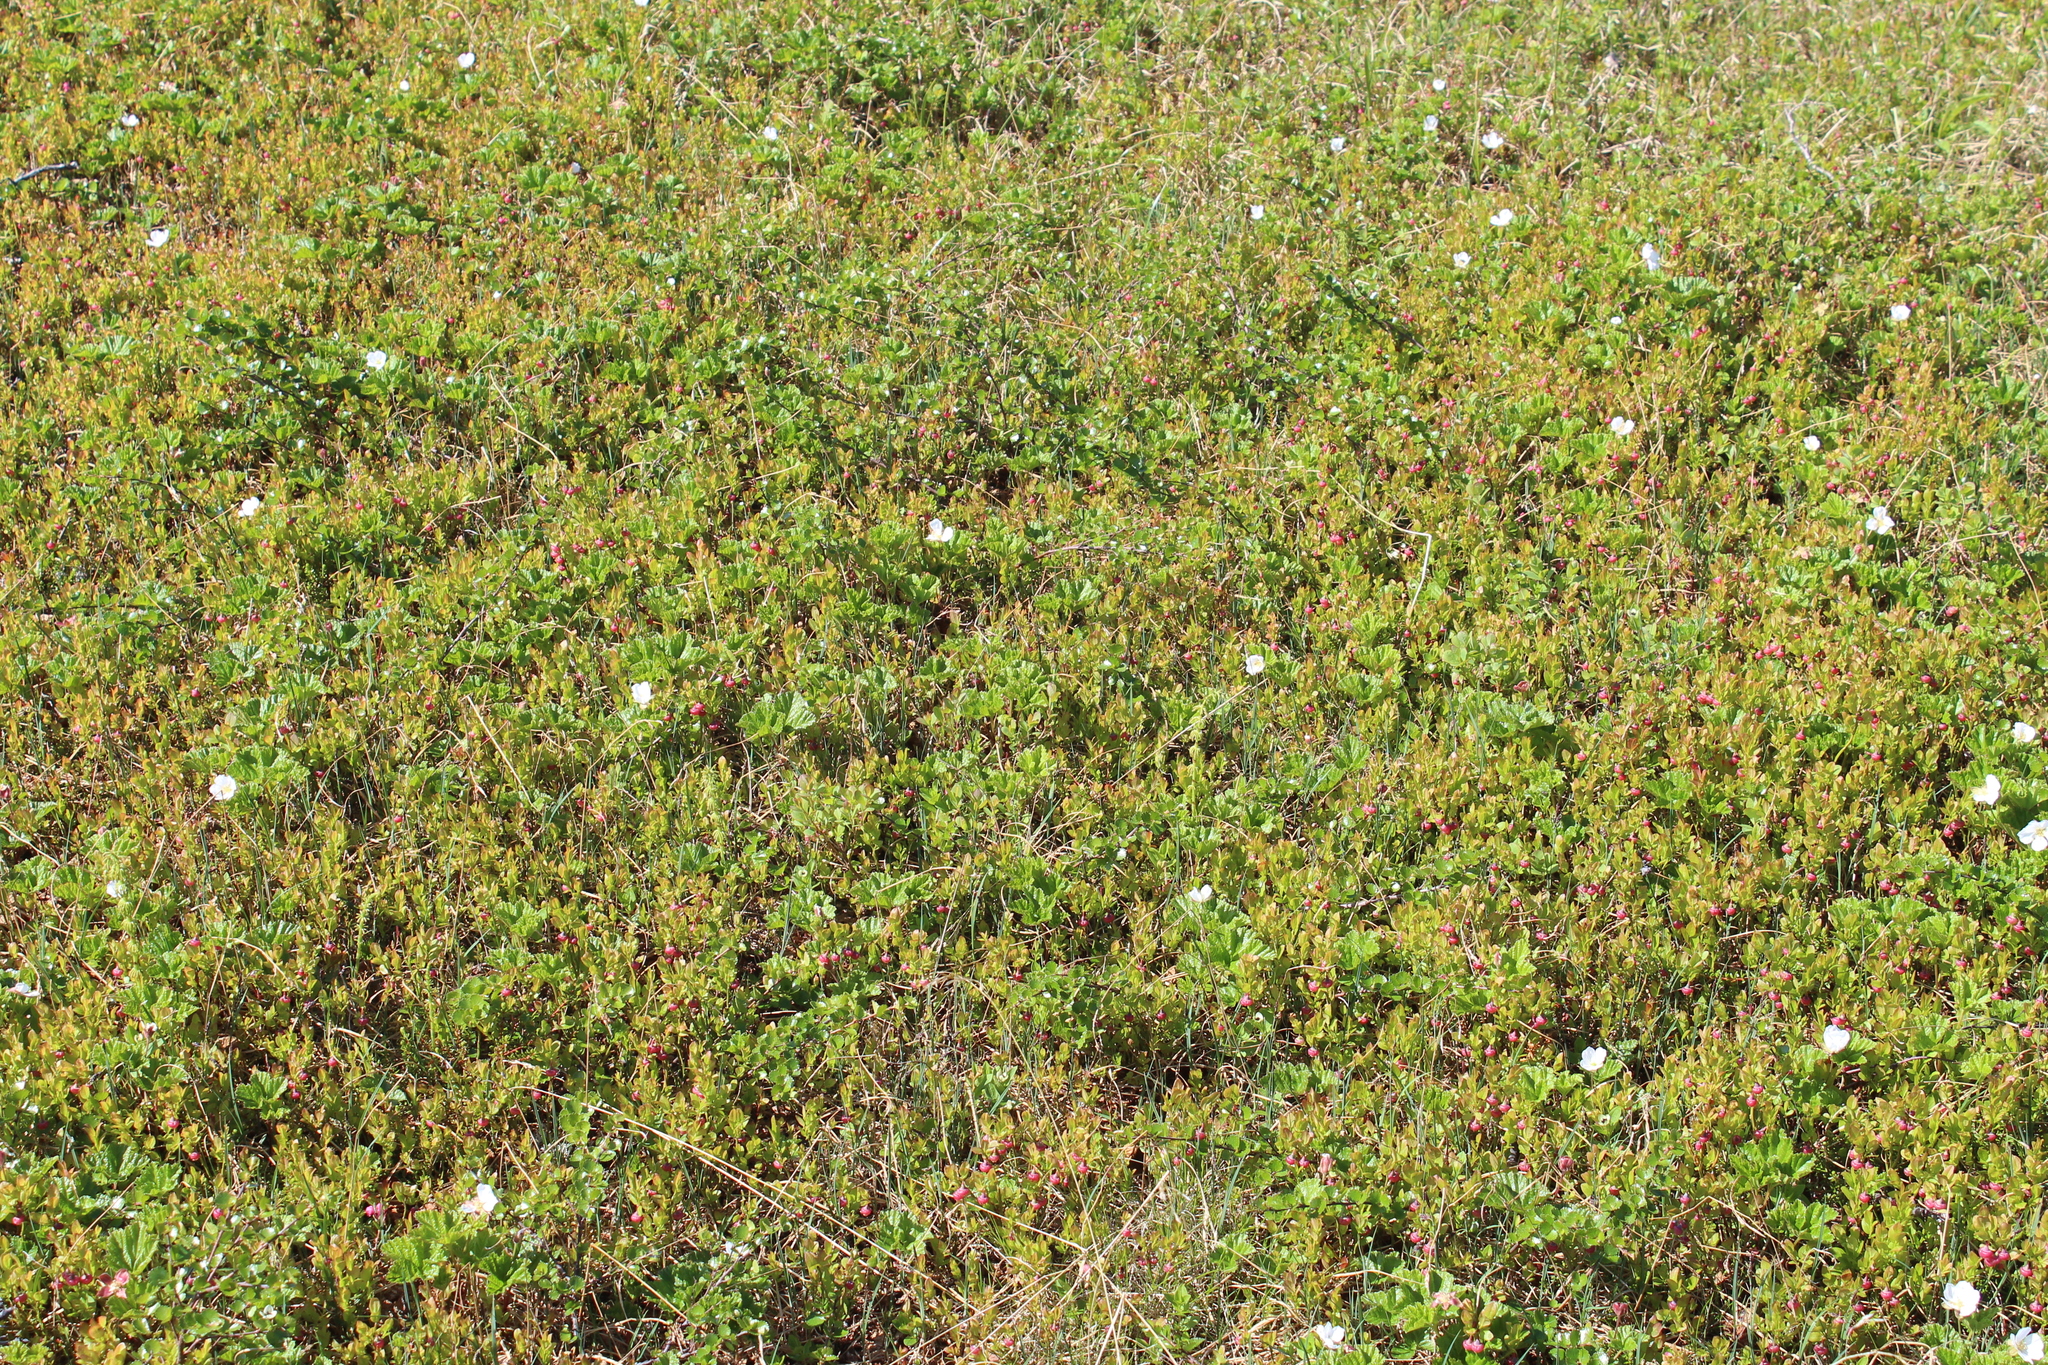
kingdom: Plantae
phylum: Tracheophyta
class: Magnoliopsida
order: Rosales
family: Rosaceae
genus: Rubus
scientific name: Rubus chamaemorus
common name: Cloudberry
